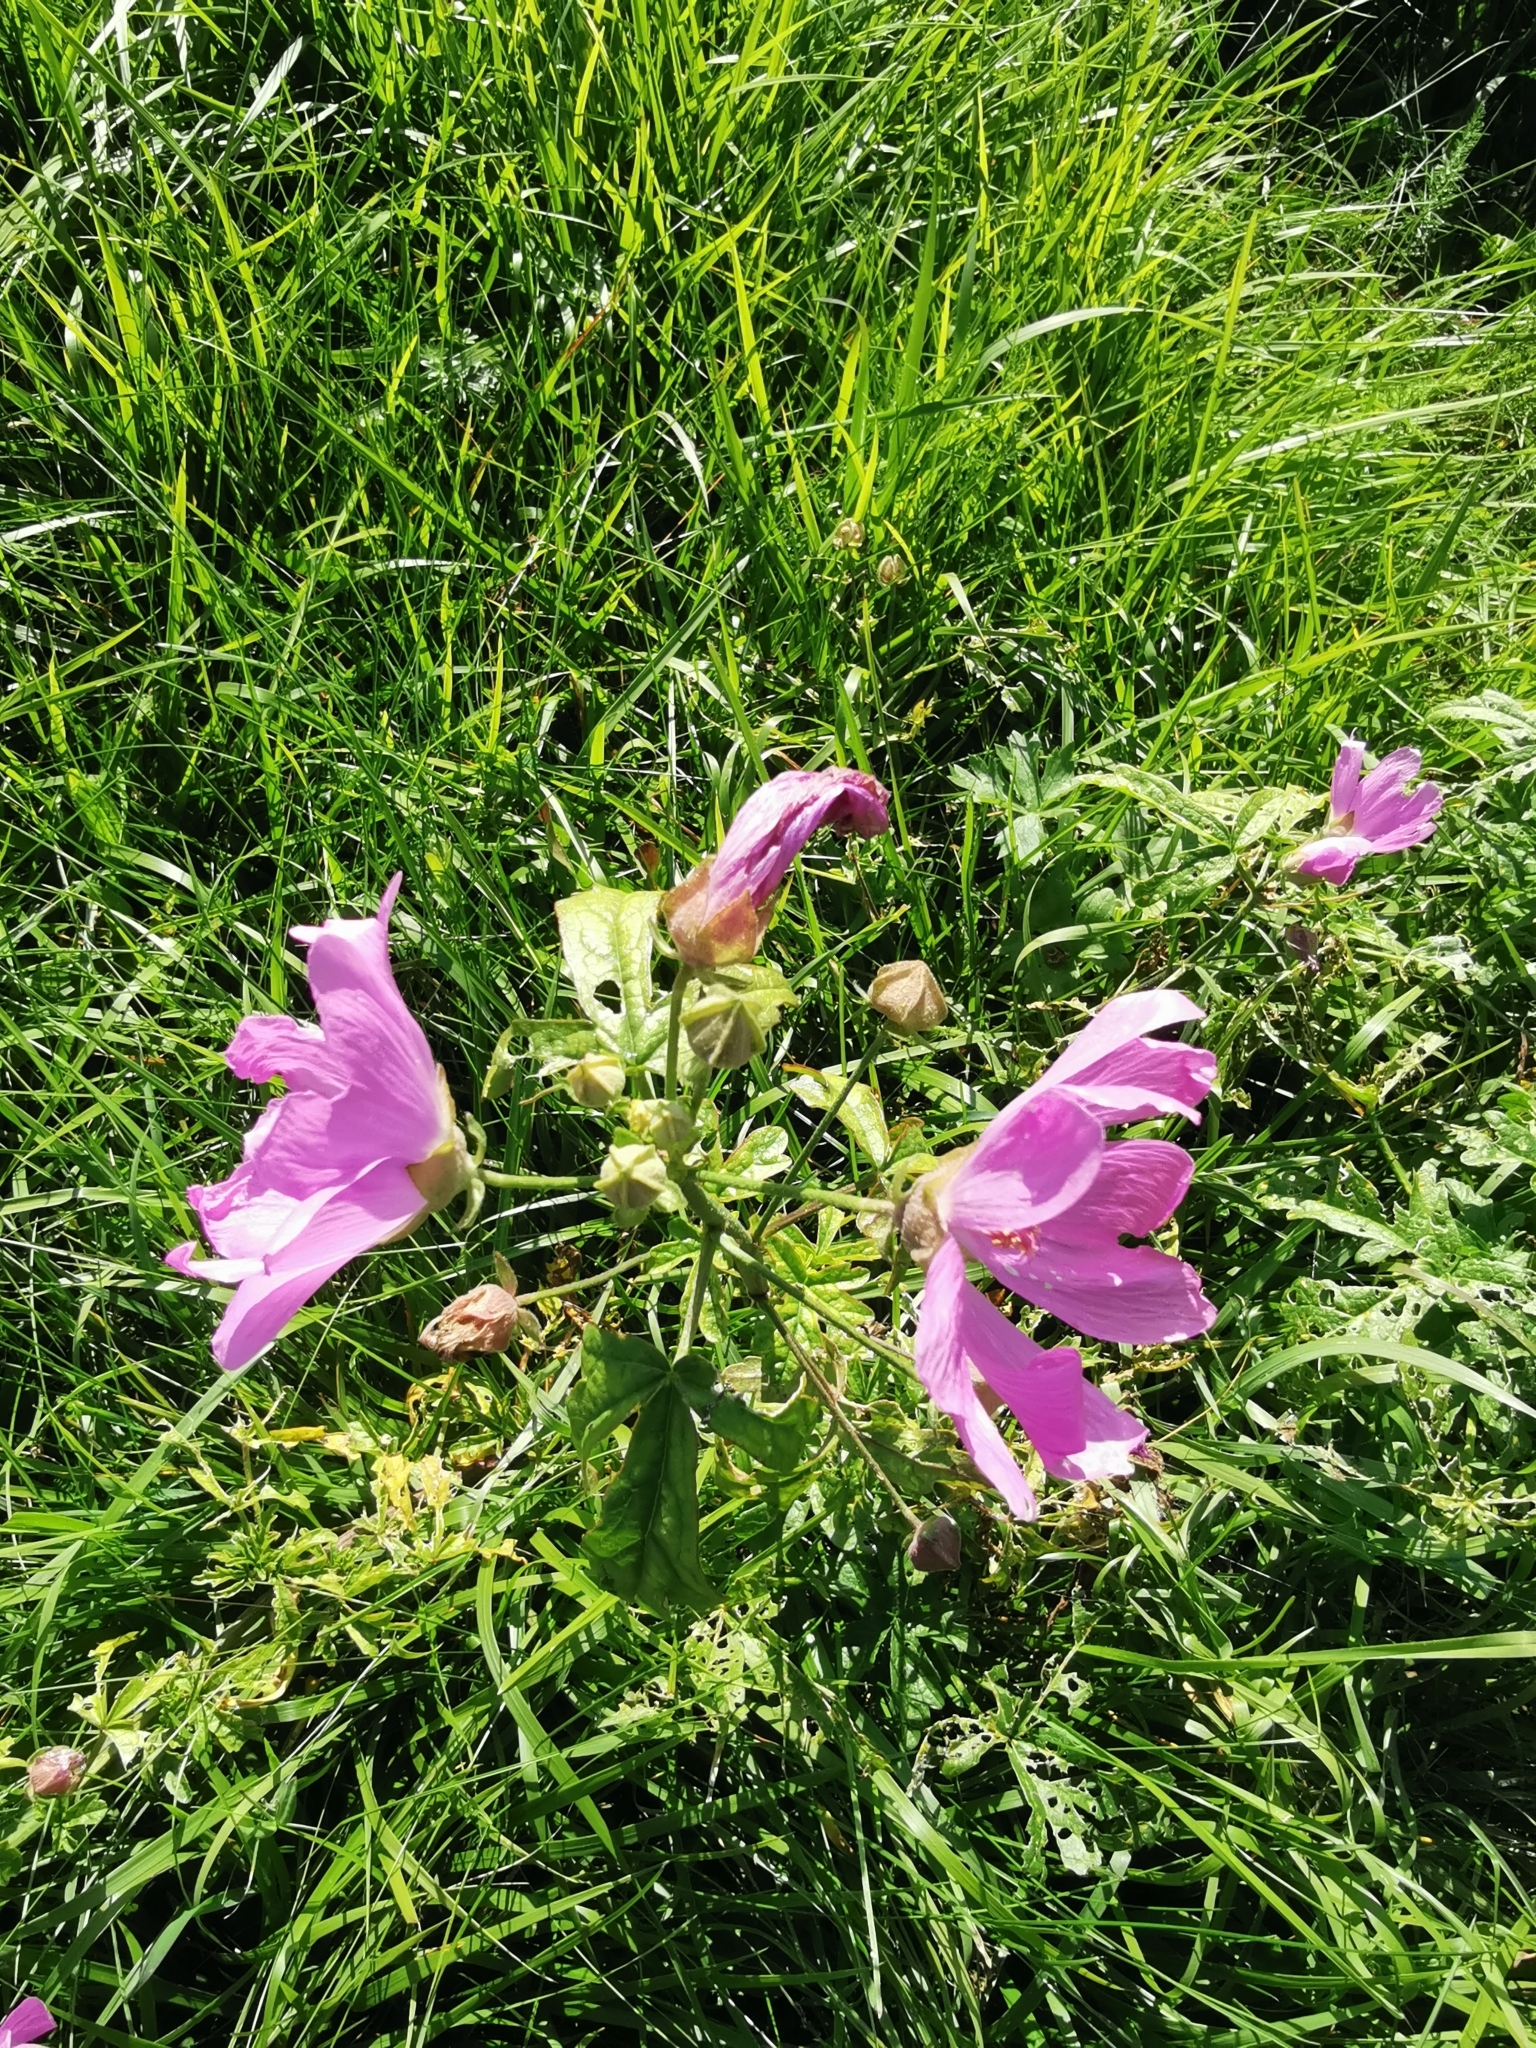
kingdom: Plantae
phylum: Tracheophyta
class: Magnoliopsida
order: Malvales
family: Malvaceae
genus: Malva
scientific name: Malva alcea
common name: Greater musk-mallow
